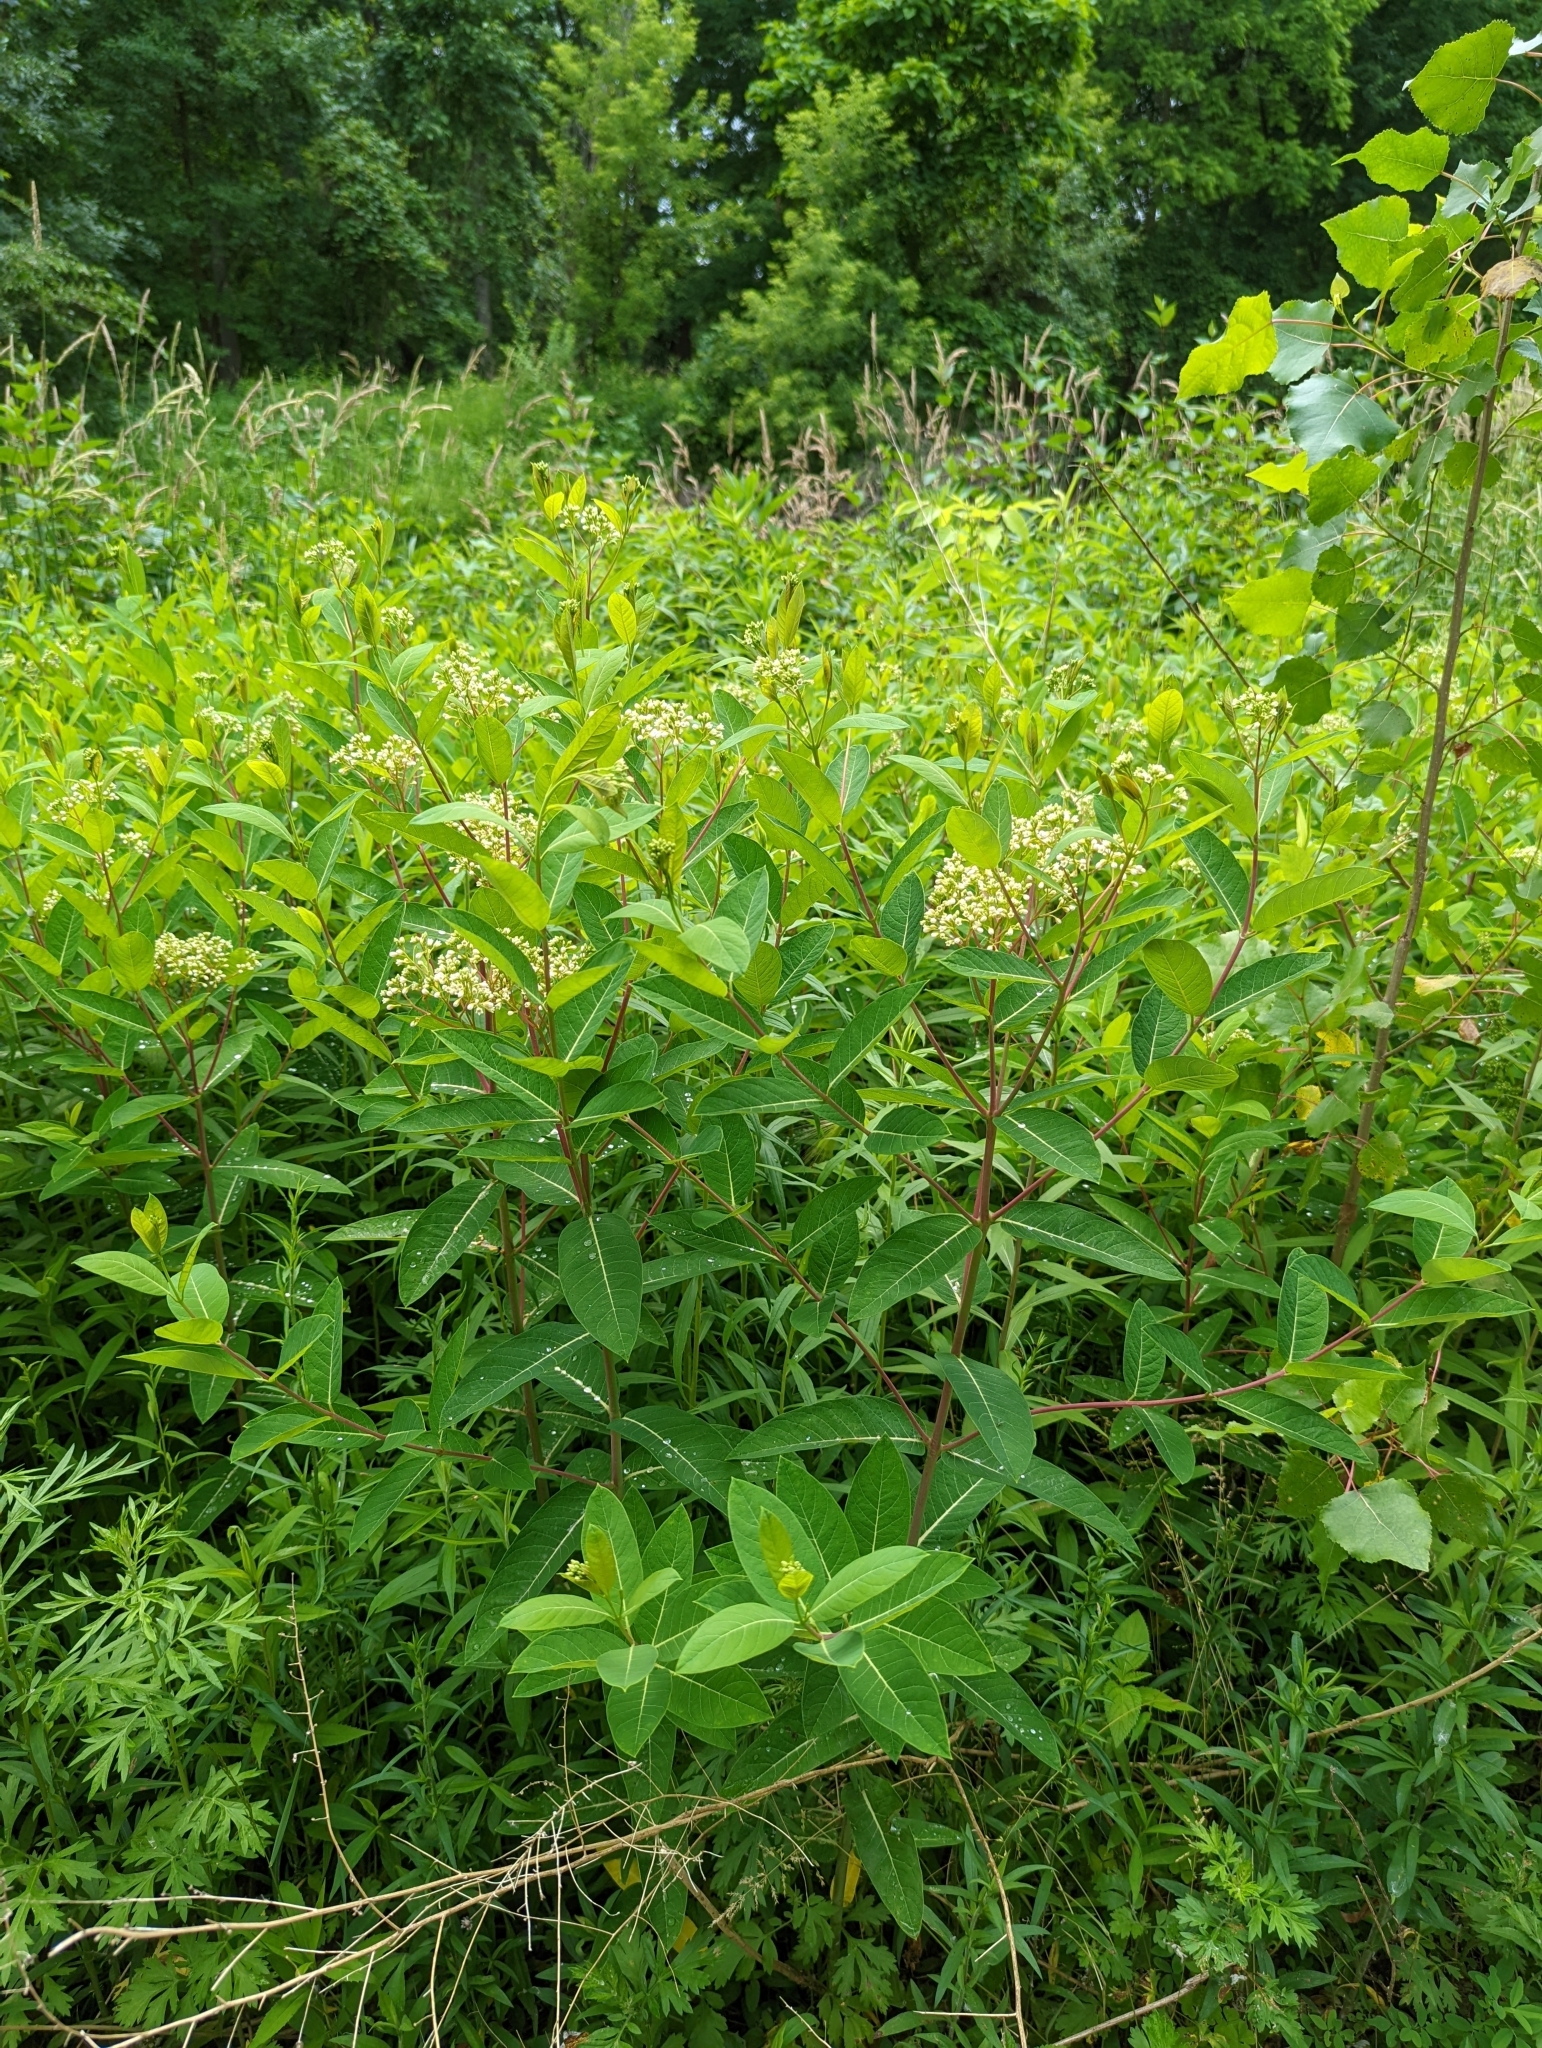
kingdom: Plantae
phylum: Tracheophyta
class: Magnoliopsida
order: Gentianales
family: Apocynaceae
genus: Apocynum
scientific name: Apocynum cannabinum
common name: Hemp dogbane
